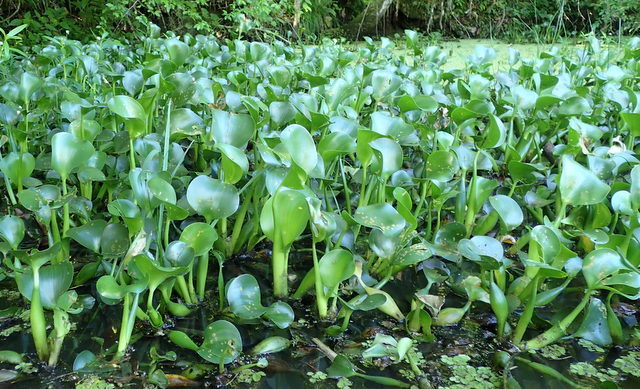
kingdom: Plantae
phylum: Tracheophyta
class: Liliopsida
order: Commelinales
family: Pontederiaceae
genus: Pontederia
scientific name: Pontederia crassipes
